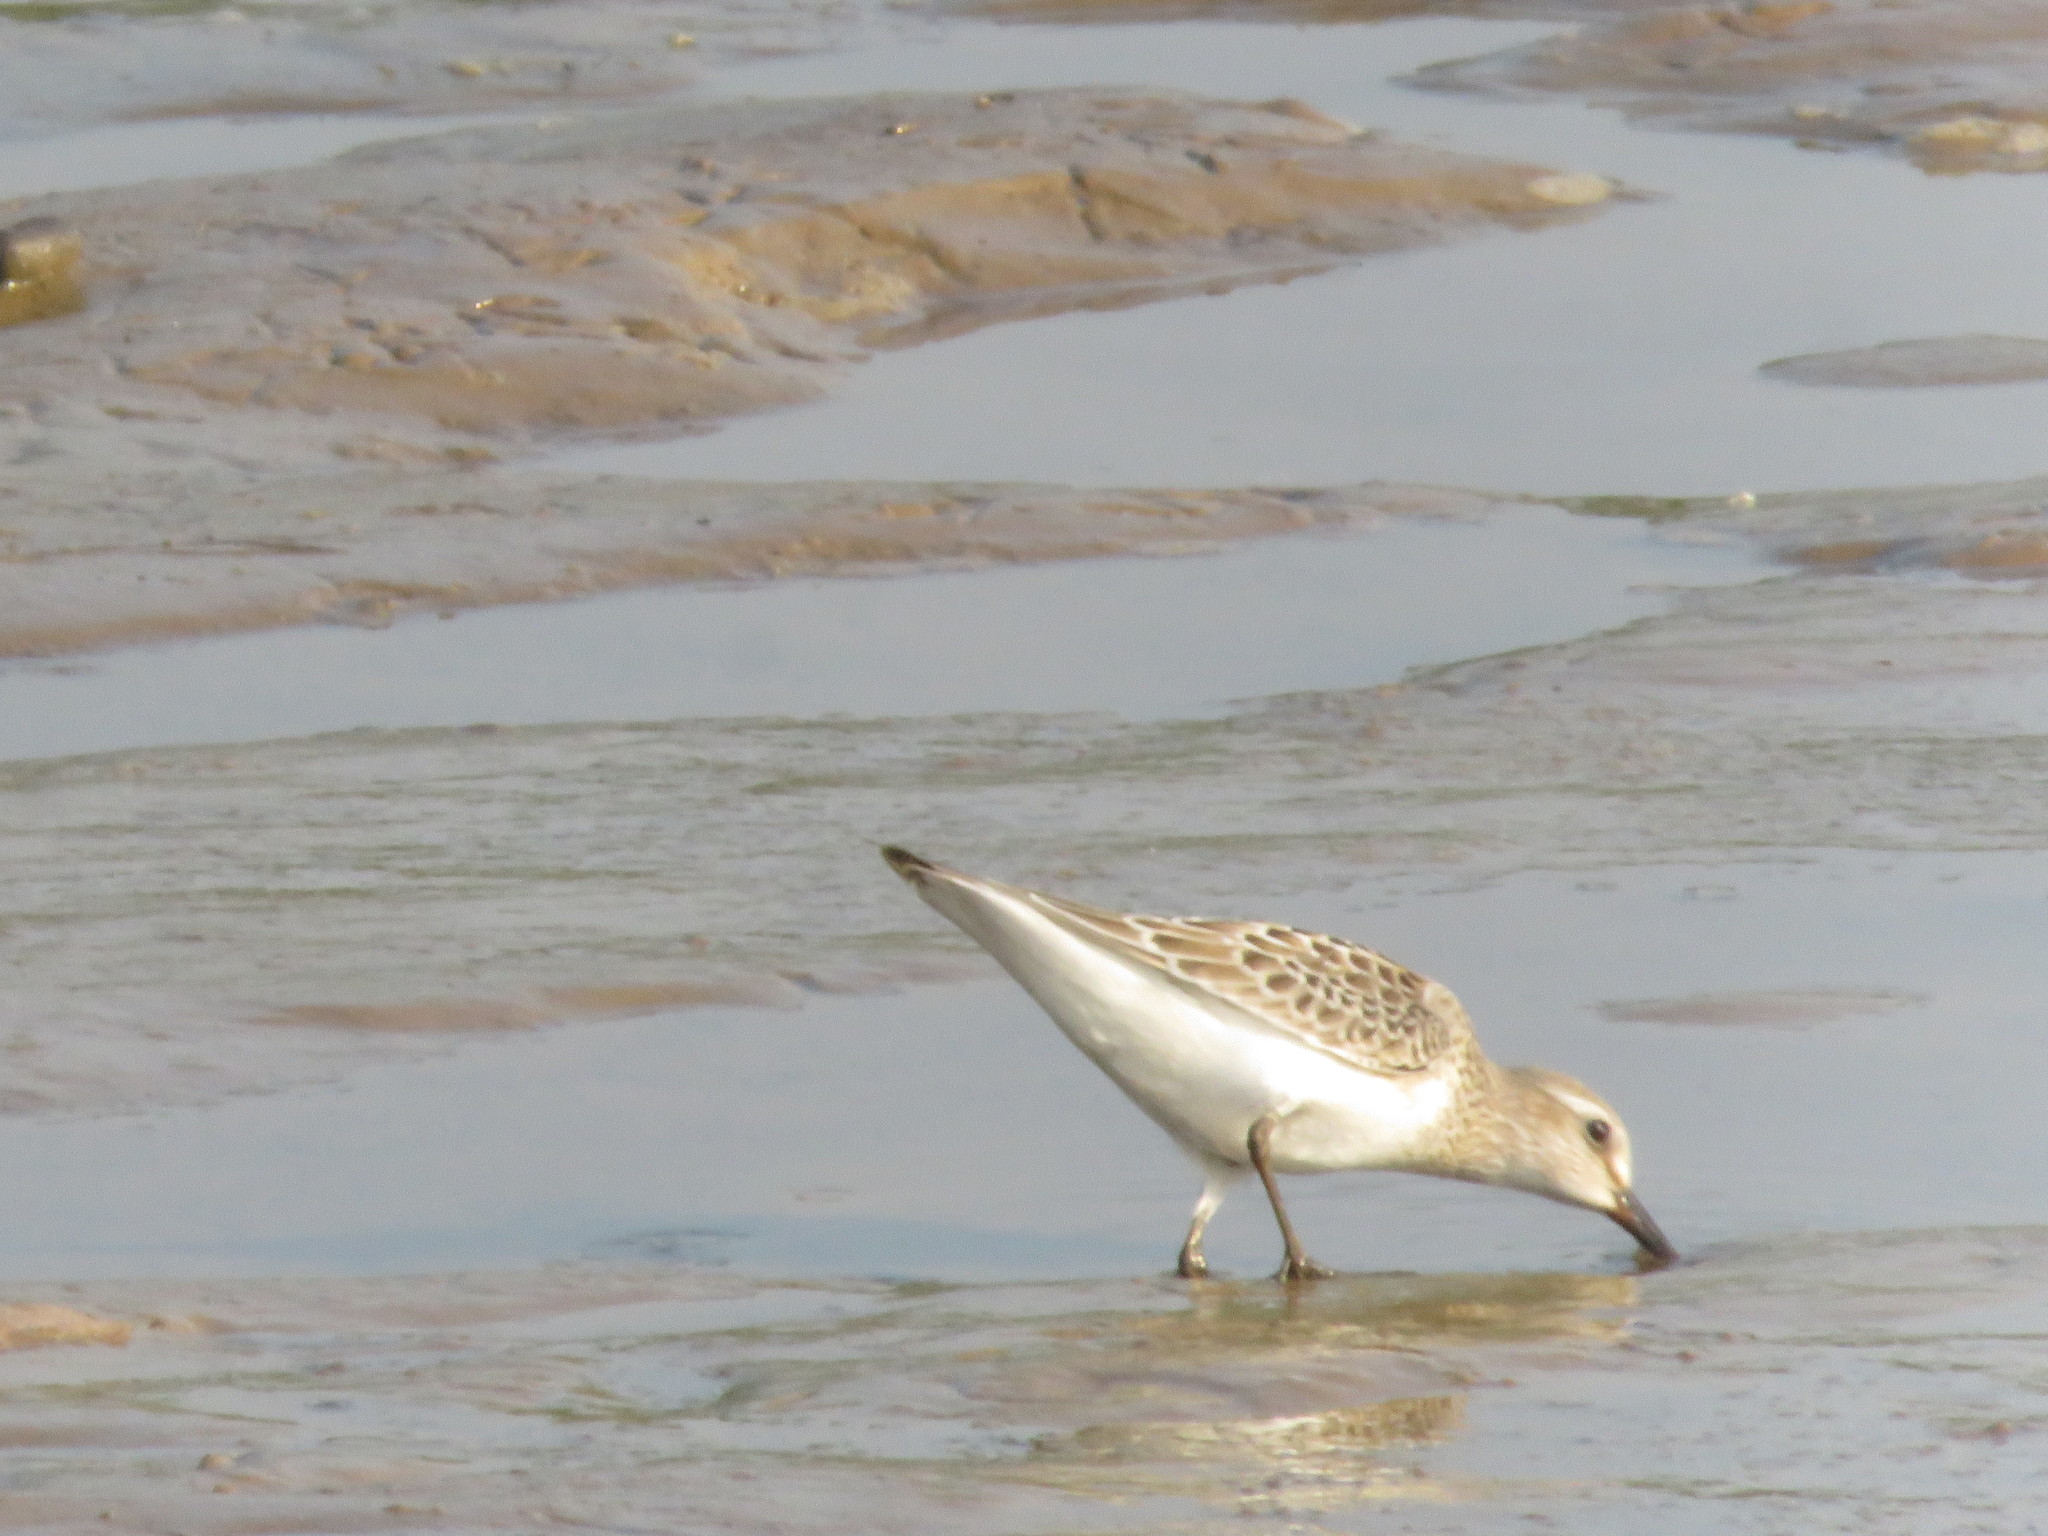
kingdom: Animalia
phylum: Chordata
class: Aves
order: Charadriiformes
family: Scolopacidae
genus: Calidris
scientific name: Calidris fuscicollis
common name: White-rumped sandpiper
